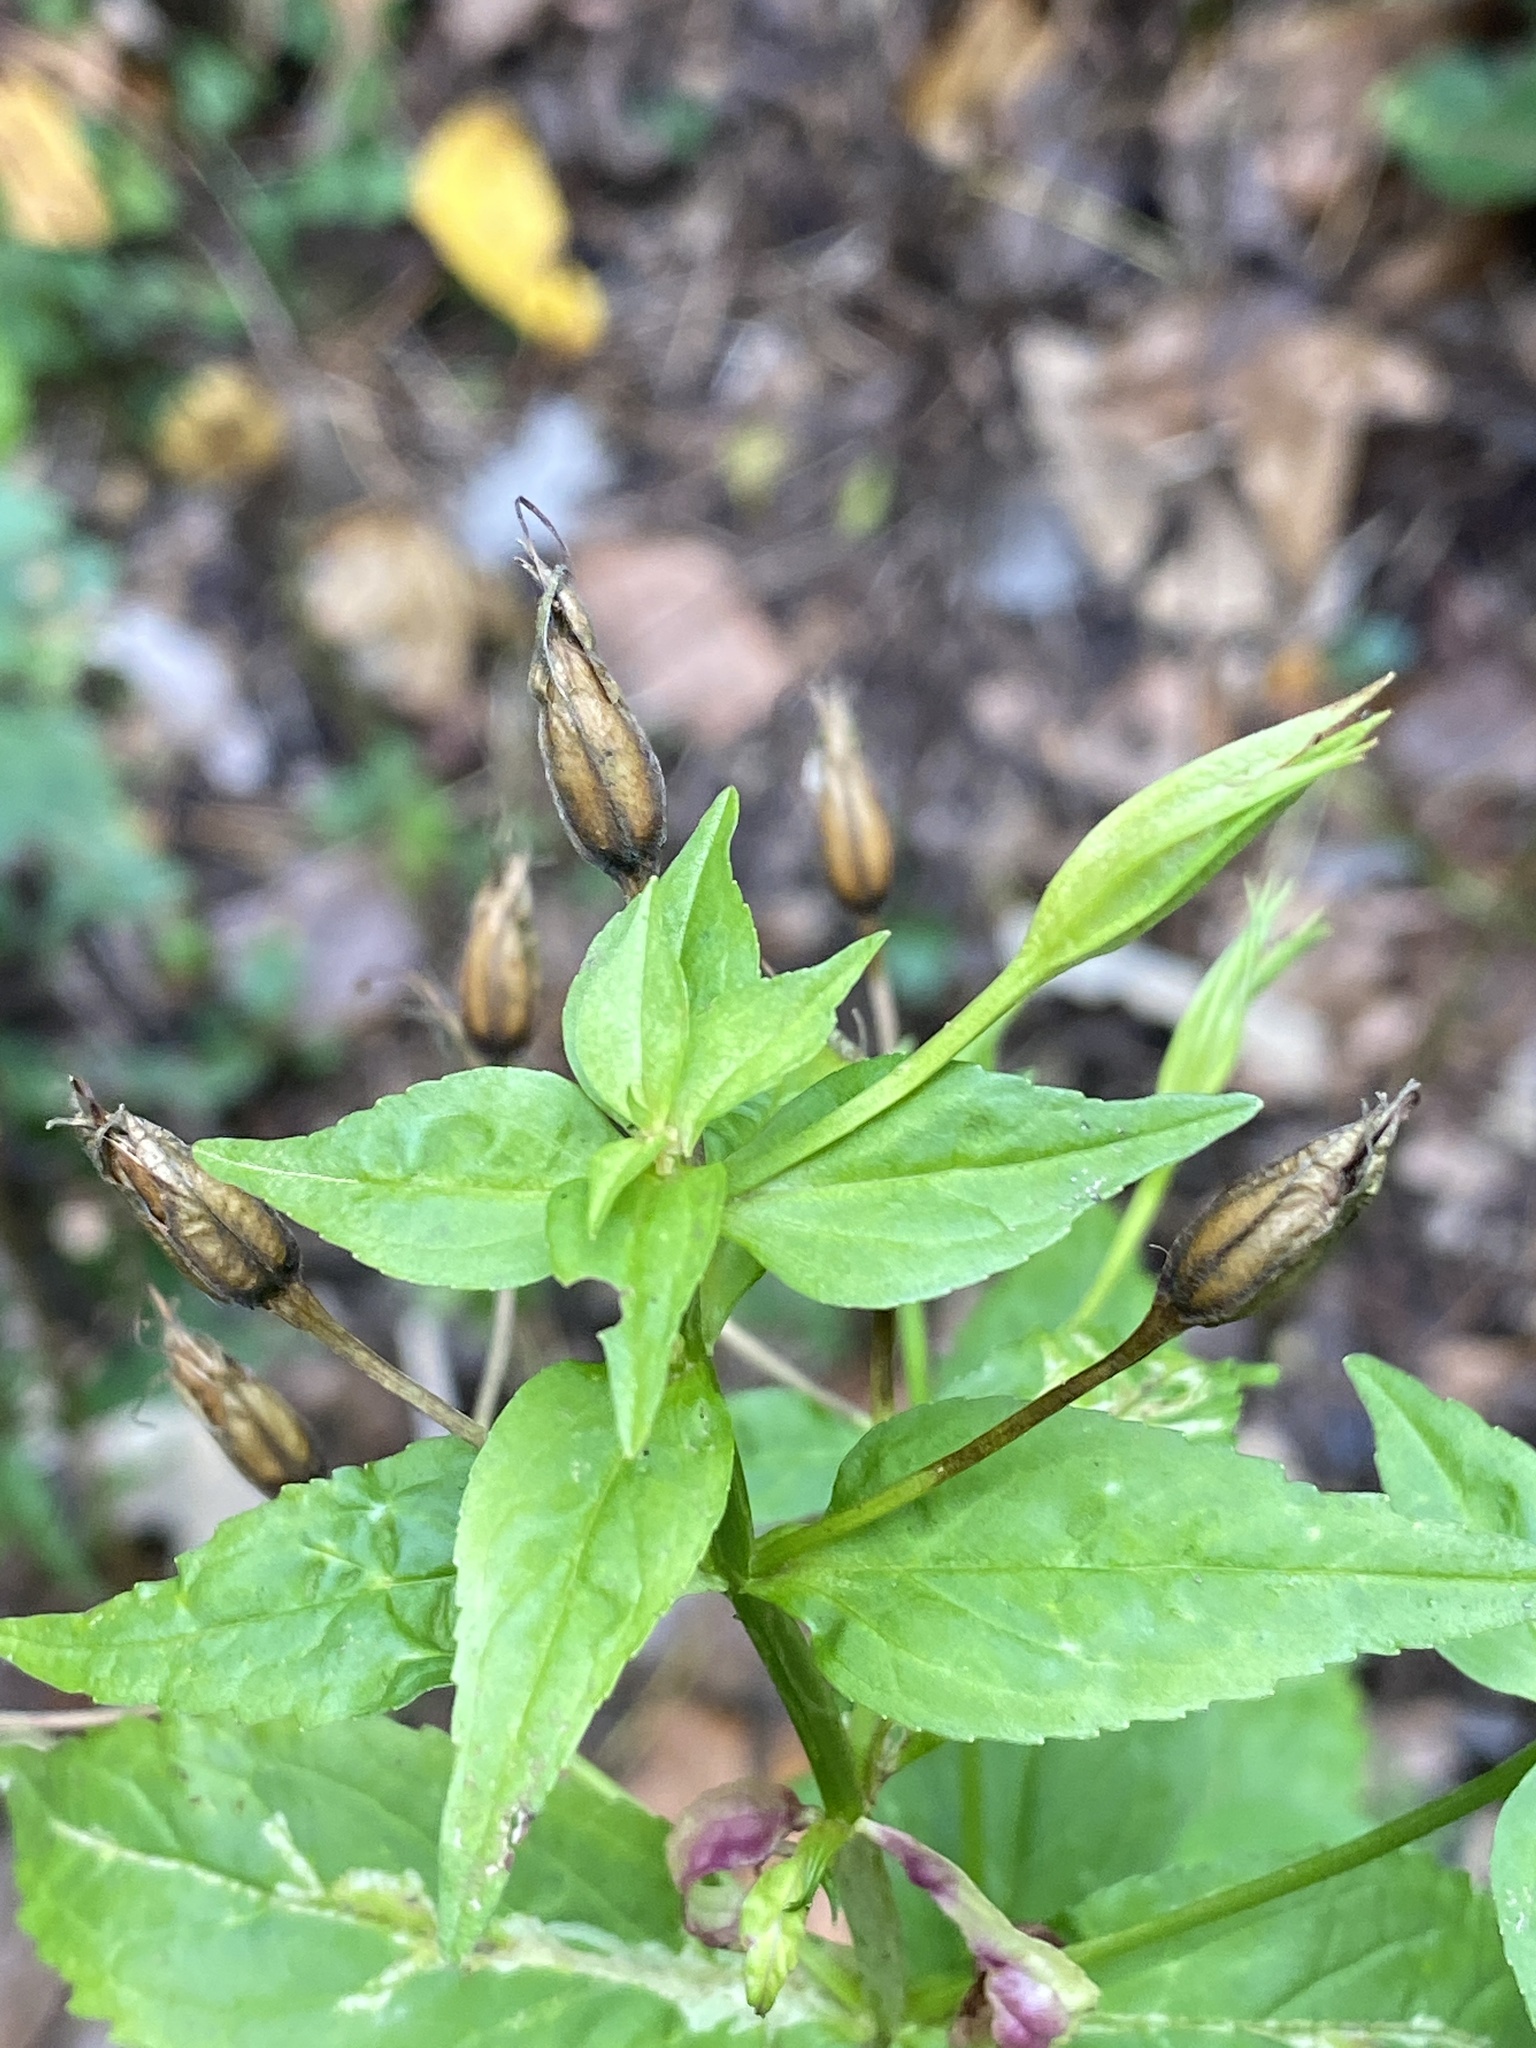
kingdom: Plantae
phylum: Tracheophyta
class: Magnoliopsida
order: Lamiales
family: Phrymaceae
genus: Mimulus
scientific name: Mimulus ringens
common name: Allegheny monkeyflower
